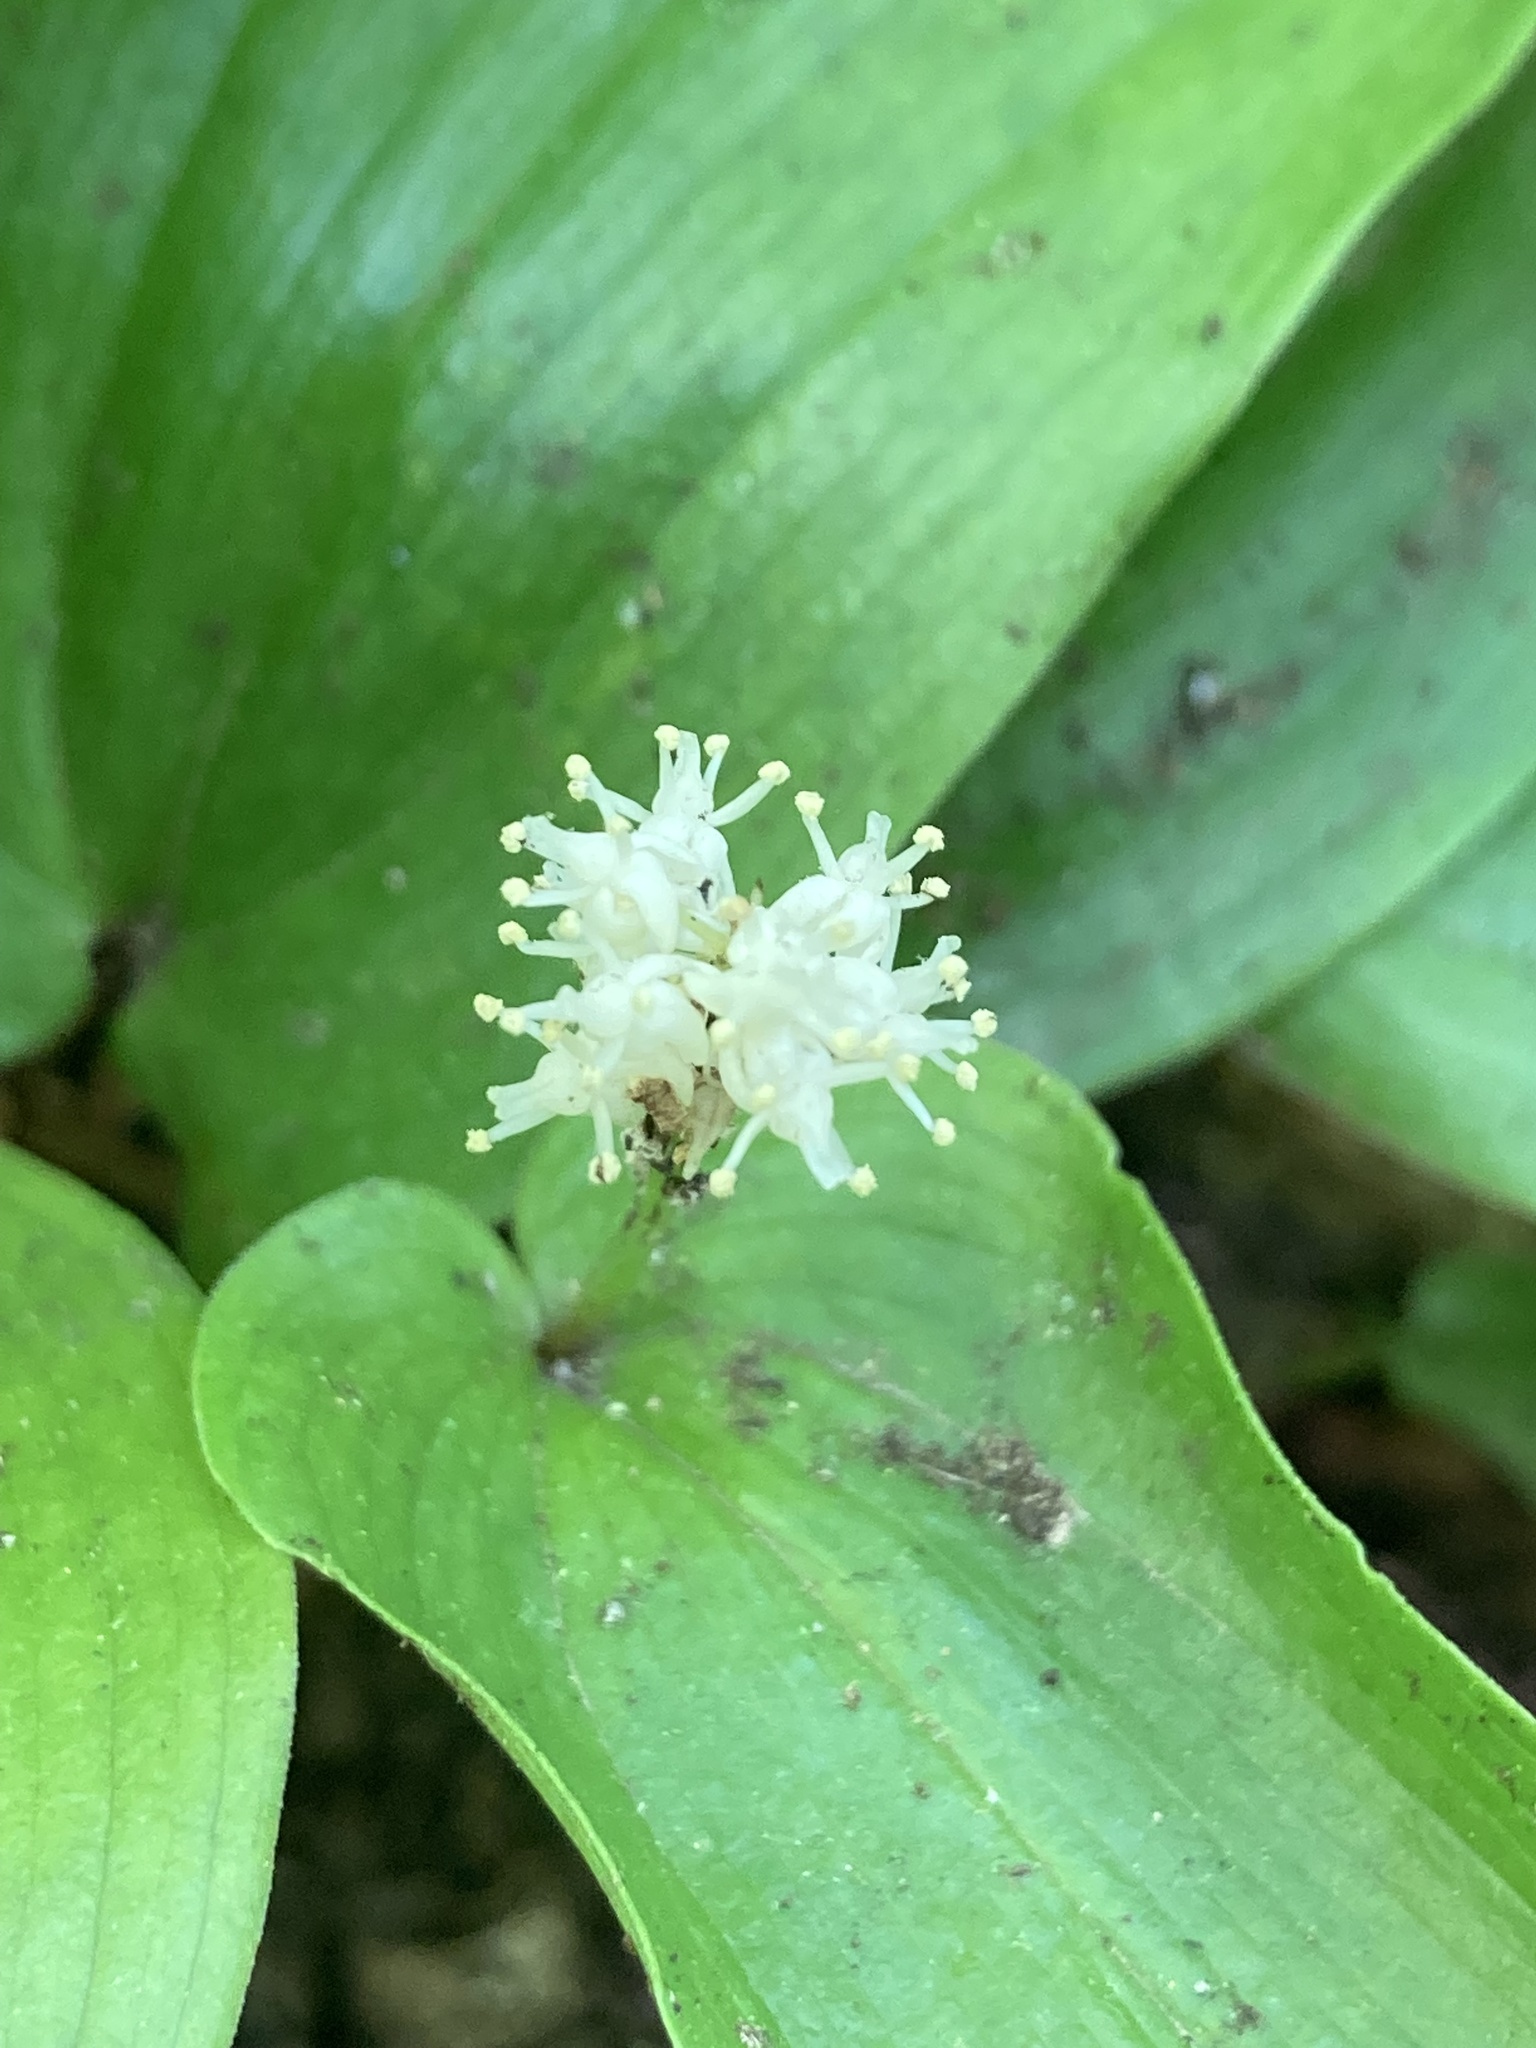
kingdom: Plantae
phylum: Tracheophyta
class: Liliopsida
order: Asparagales
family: Asparagaceae
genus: Maianthemum
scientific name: Maianthemum canadense
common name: False lily-of-the-valley
